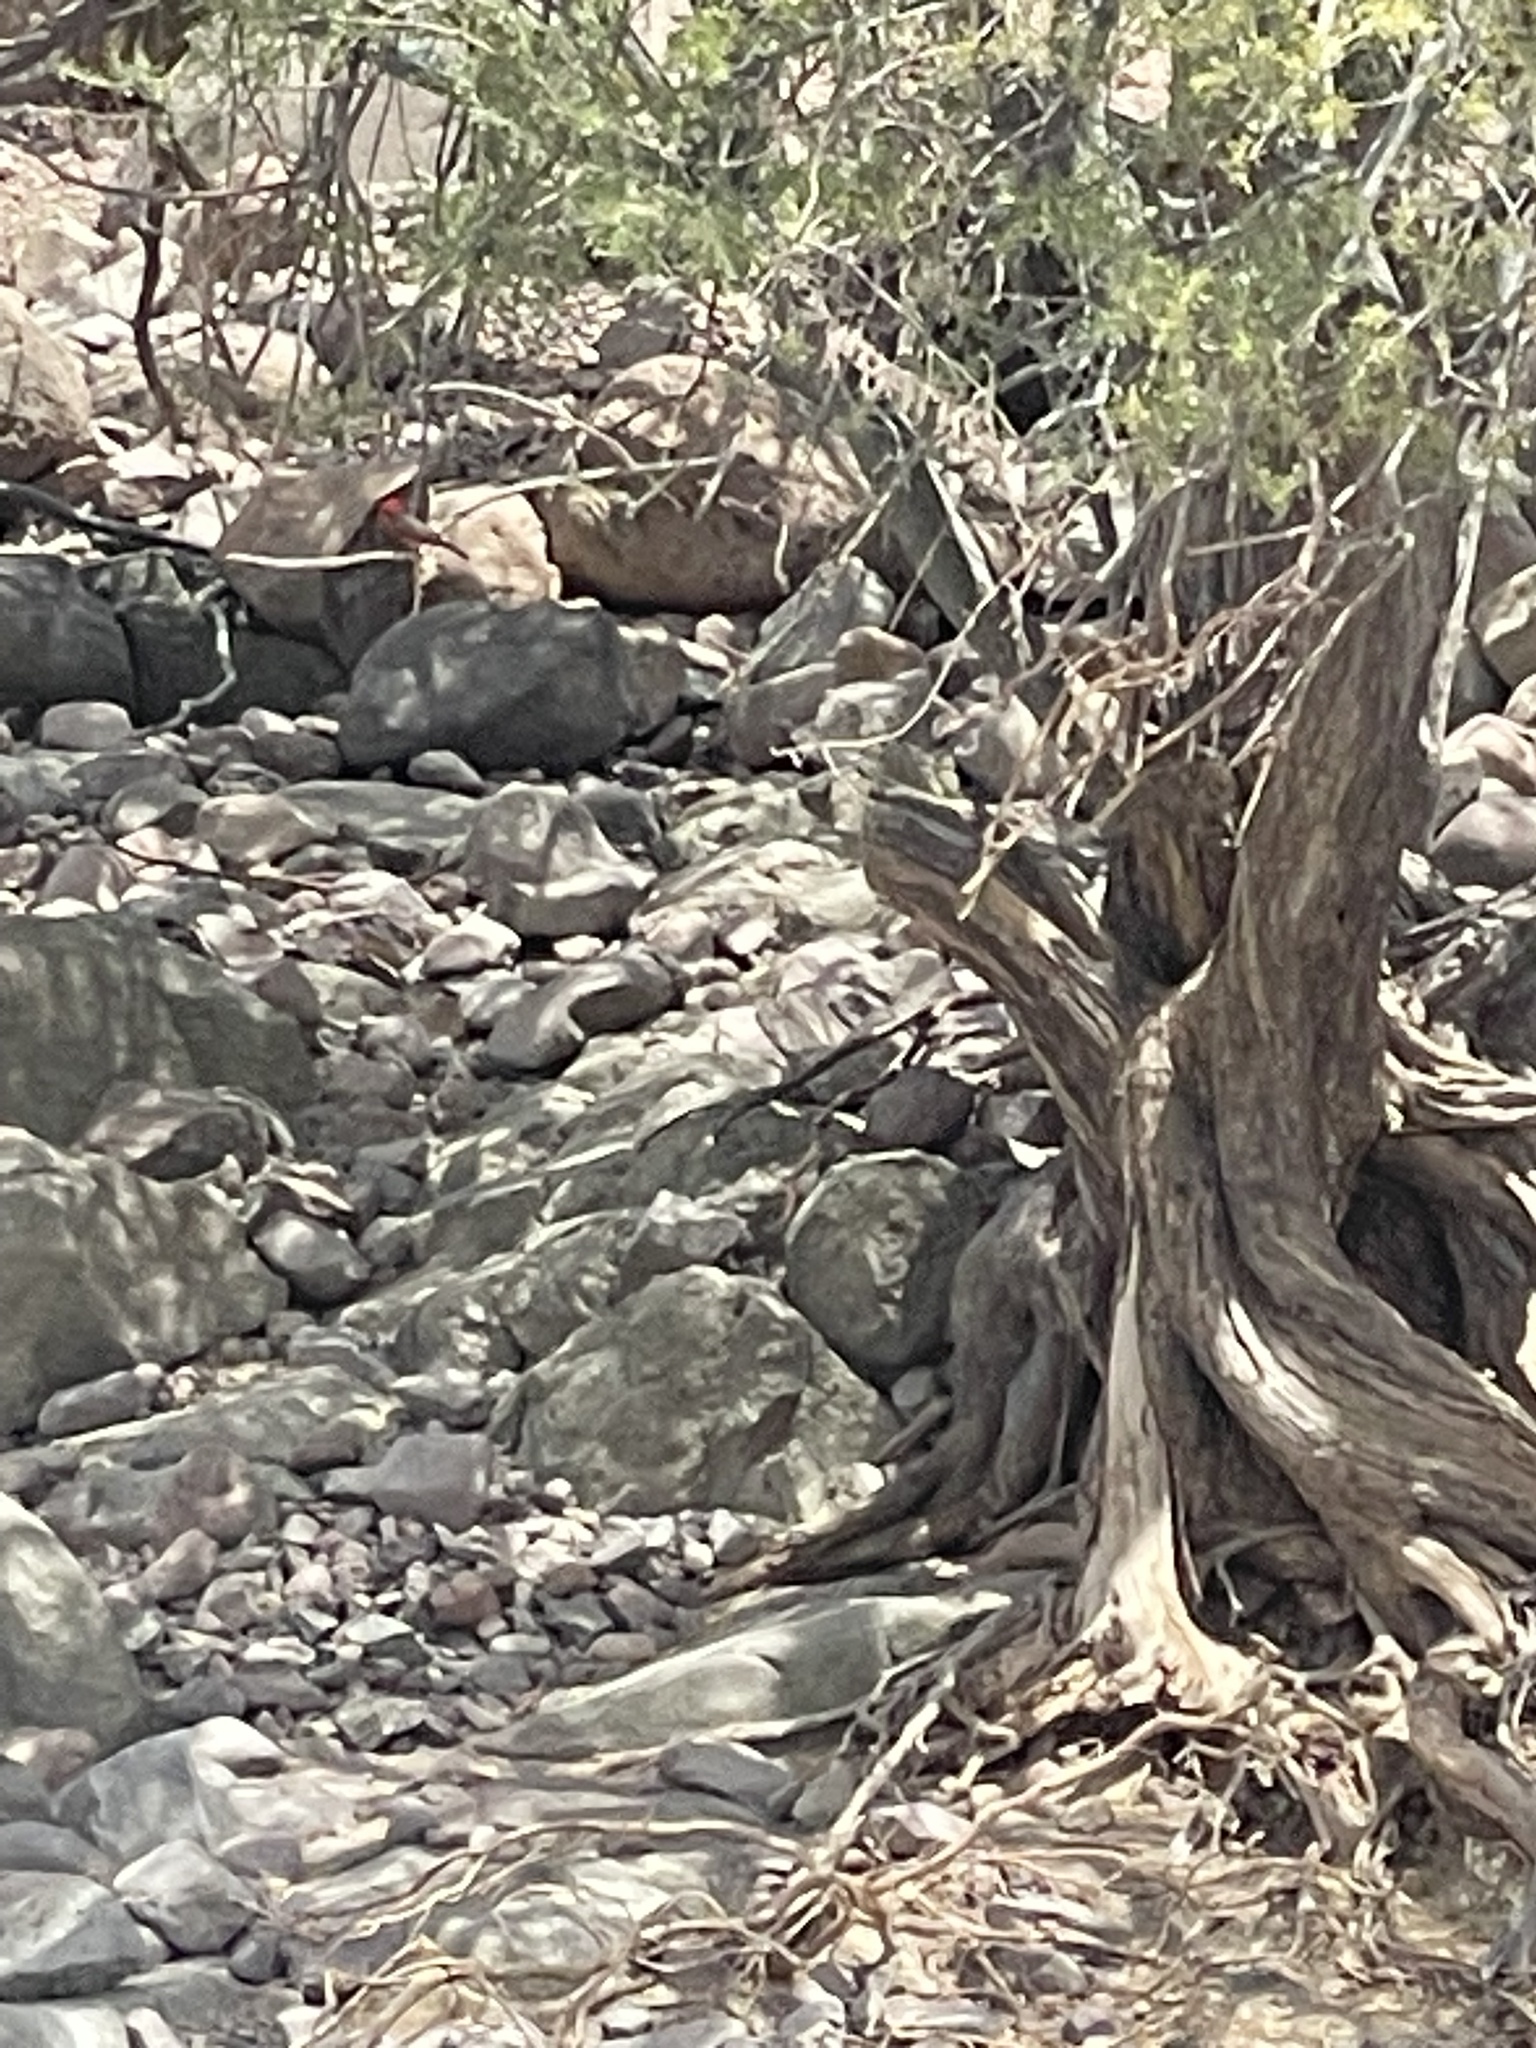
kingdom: Animalia
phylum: Chordata
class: Aves
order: Passeriformes
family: Tyrannidae
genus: Pyrocephalus
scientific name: Pyrocephalus rubinus
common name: Vermilion flycatcher
